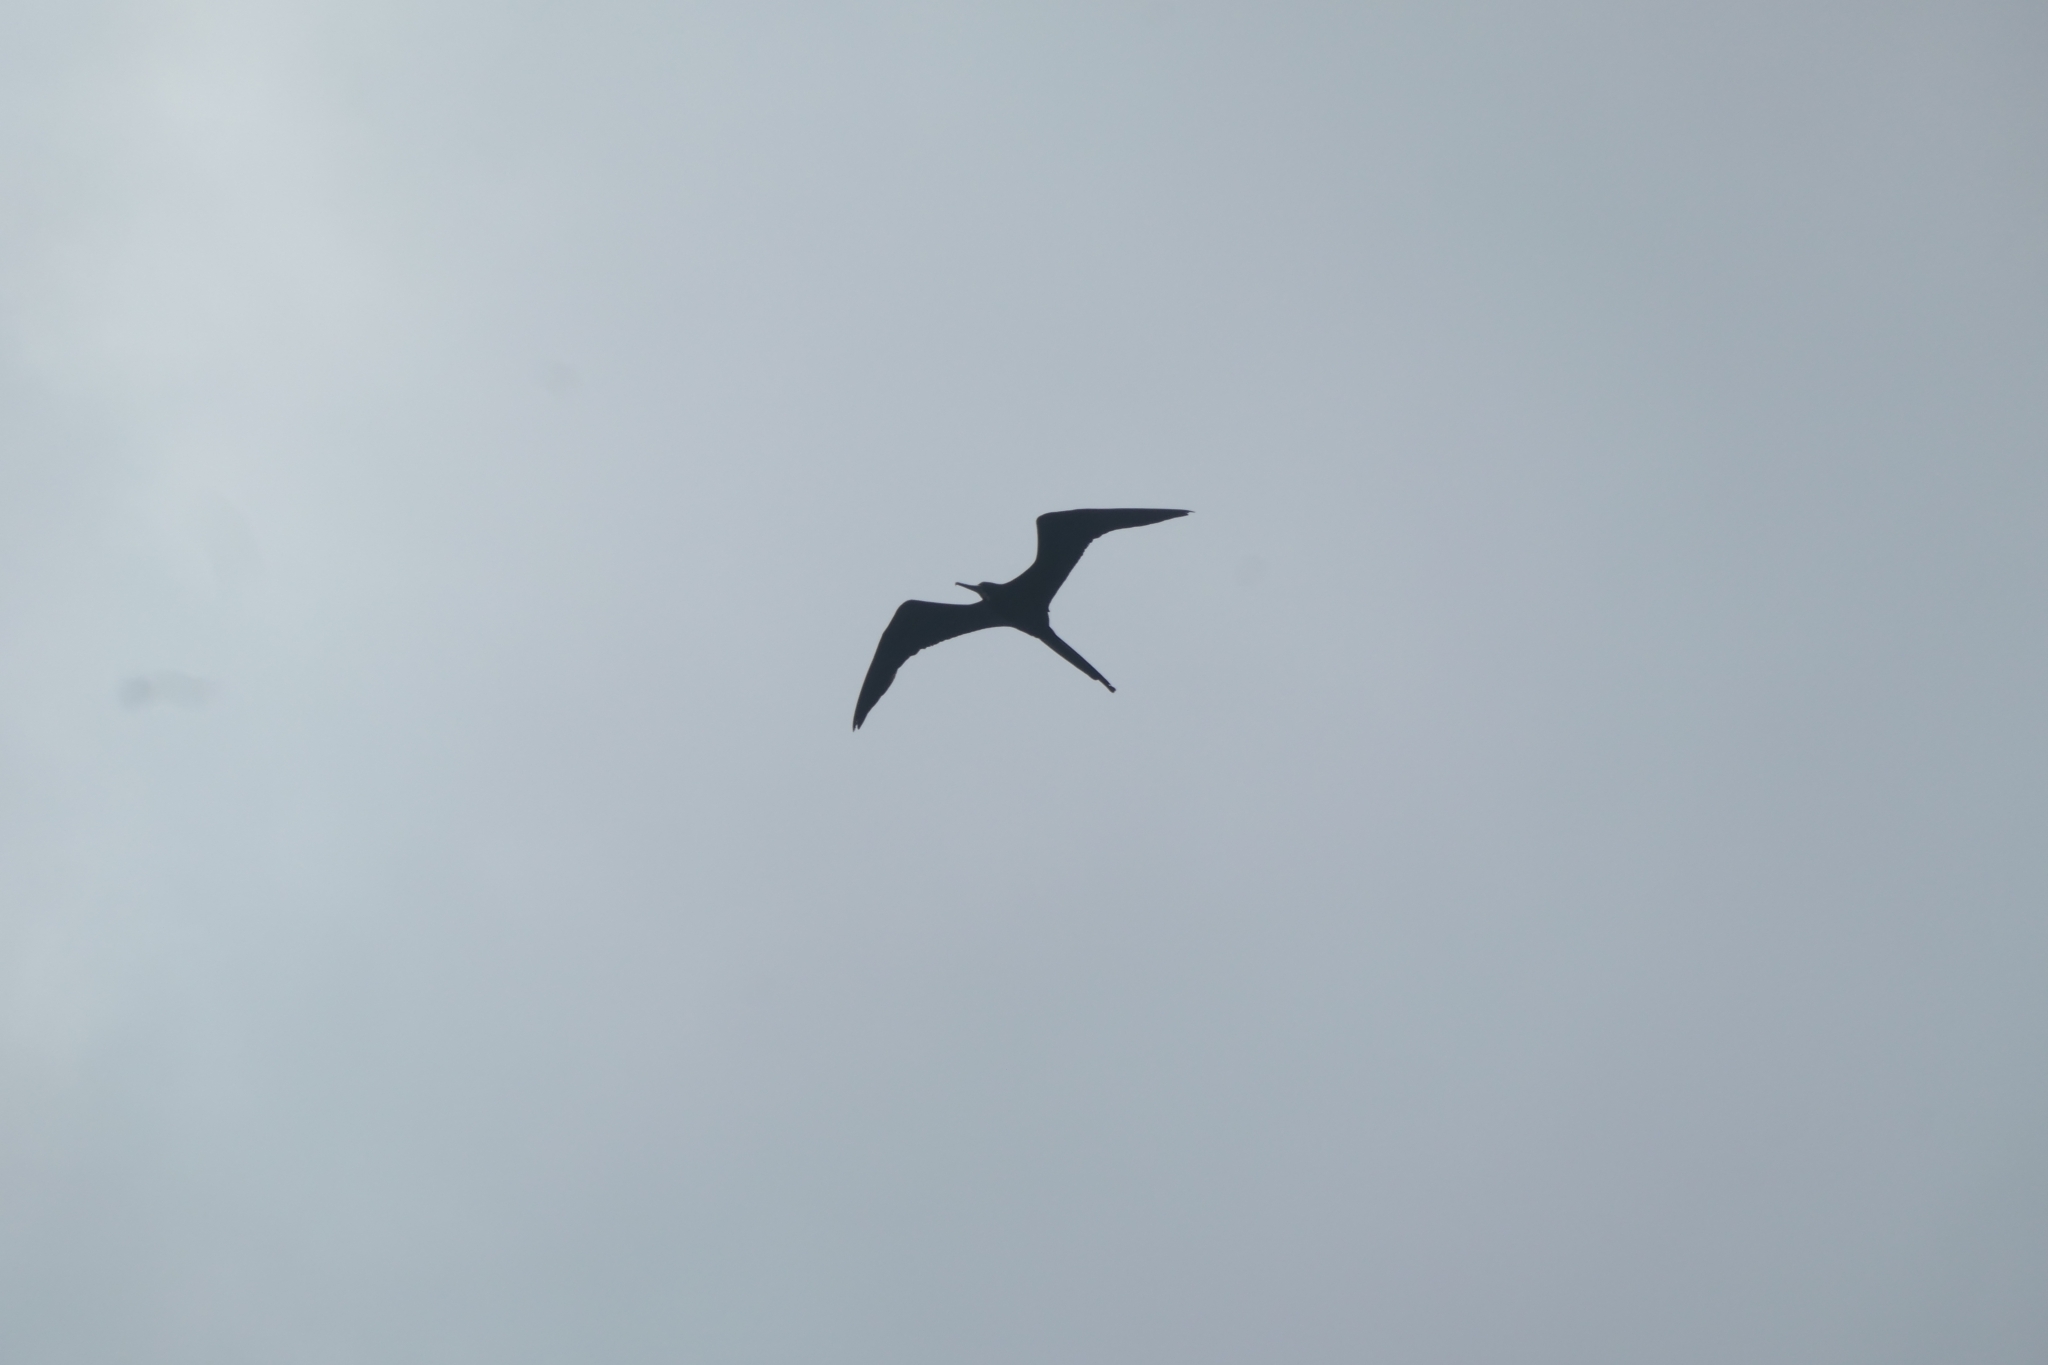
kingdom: Animalia
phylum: Chordata
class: Aves
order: Suliformes
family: Fregatidae
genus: Fregata
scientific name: Fregata magnificens
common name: Magnificent frigatebird
